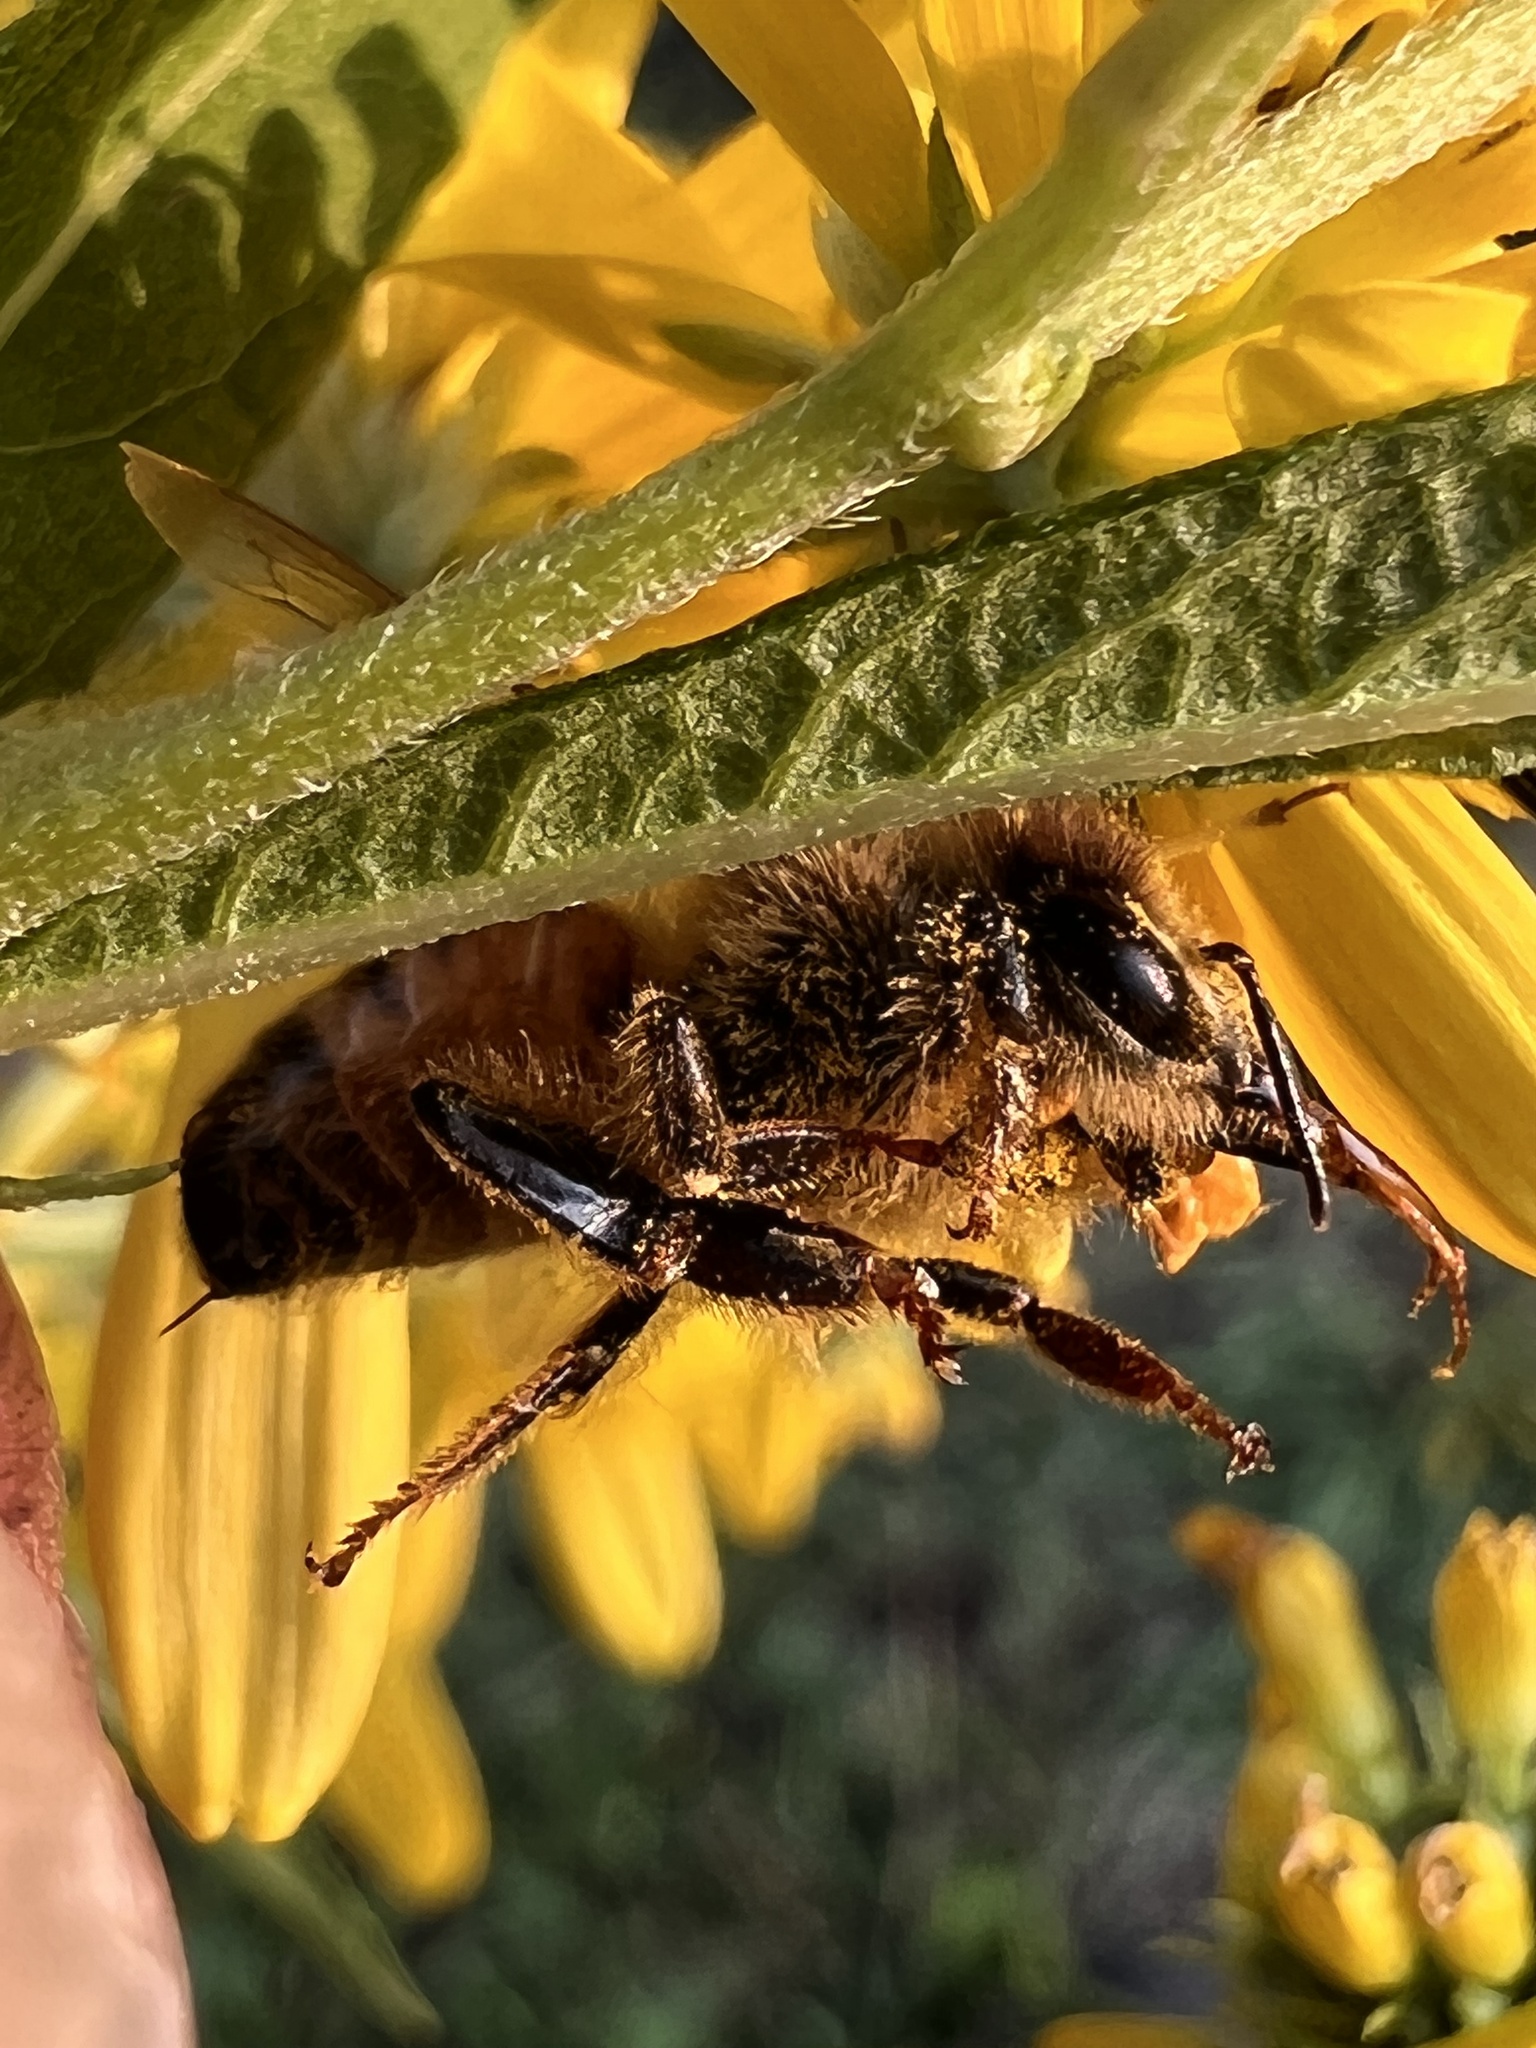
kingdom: Animalia
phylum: Arthropoda
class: Insecta
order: Hymenoptera
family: Apidae
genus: Apis
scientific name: Apis mellifera
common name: Honey bee
